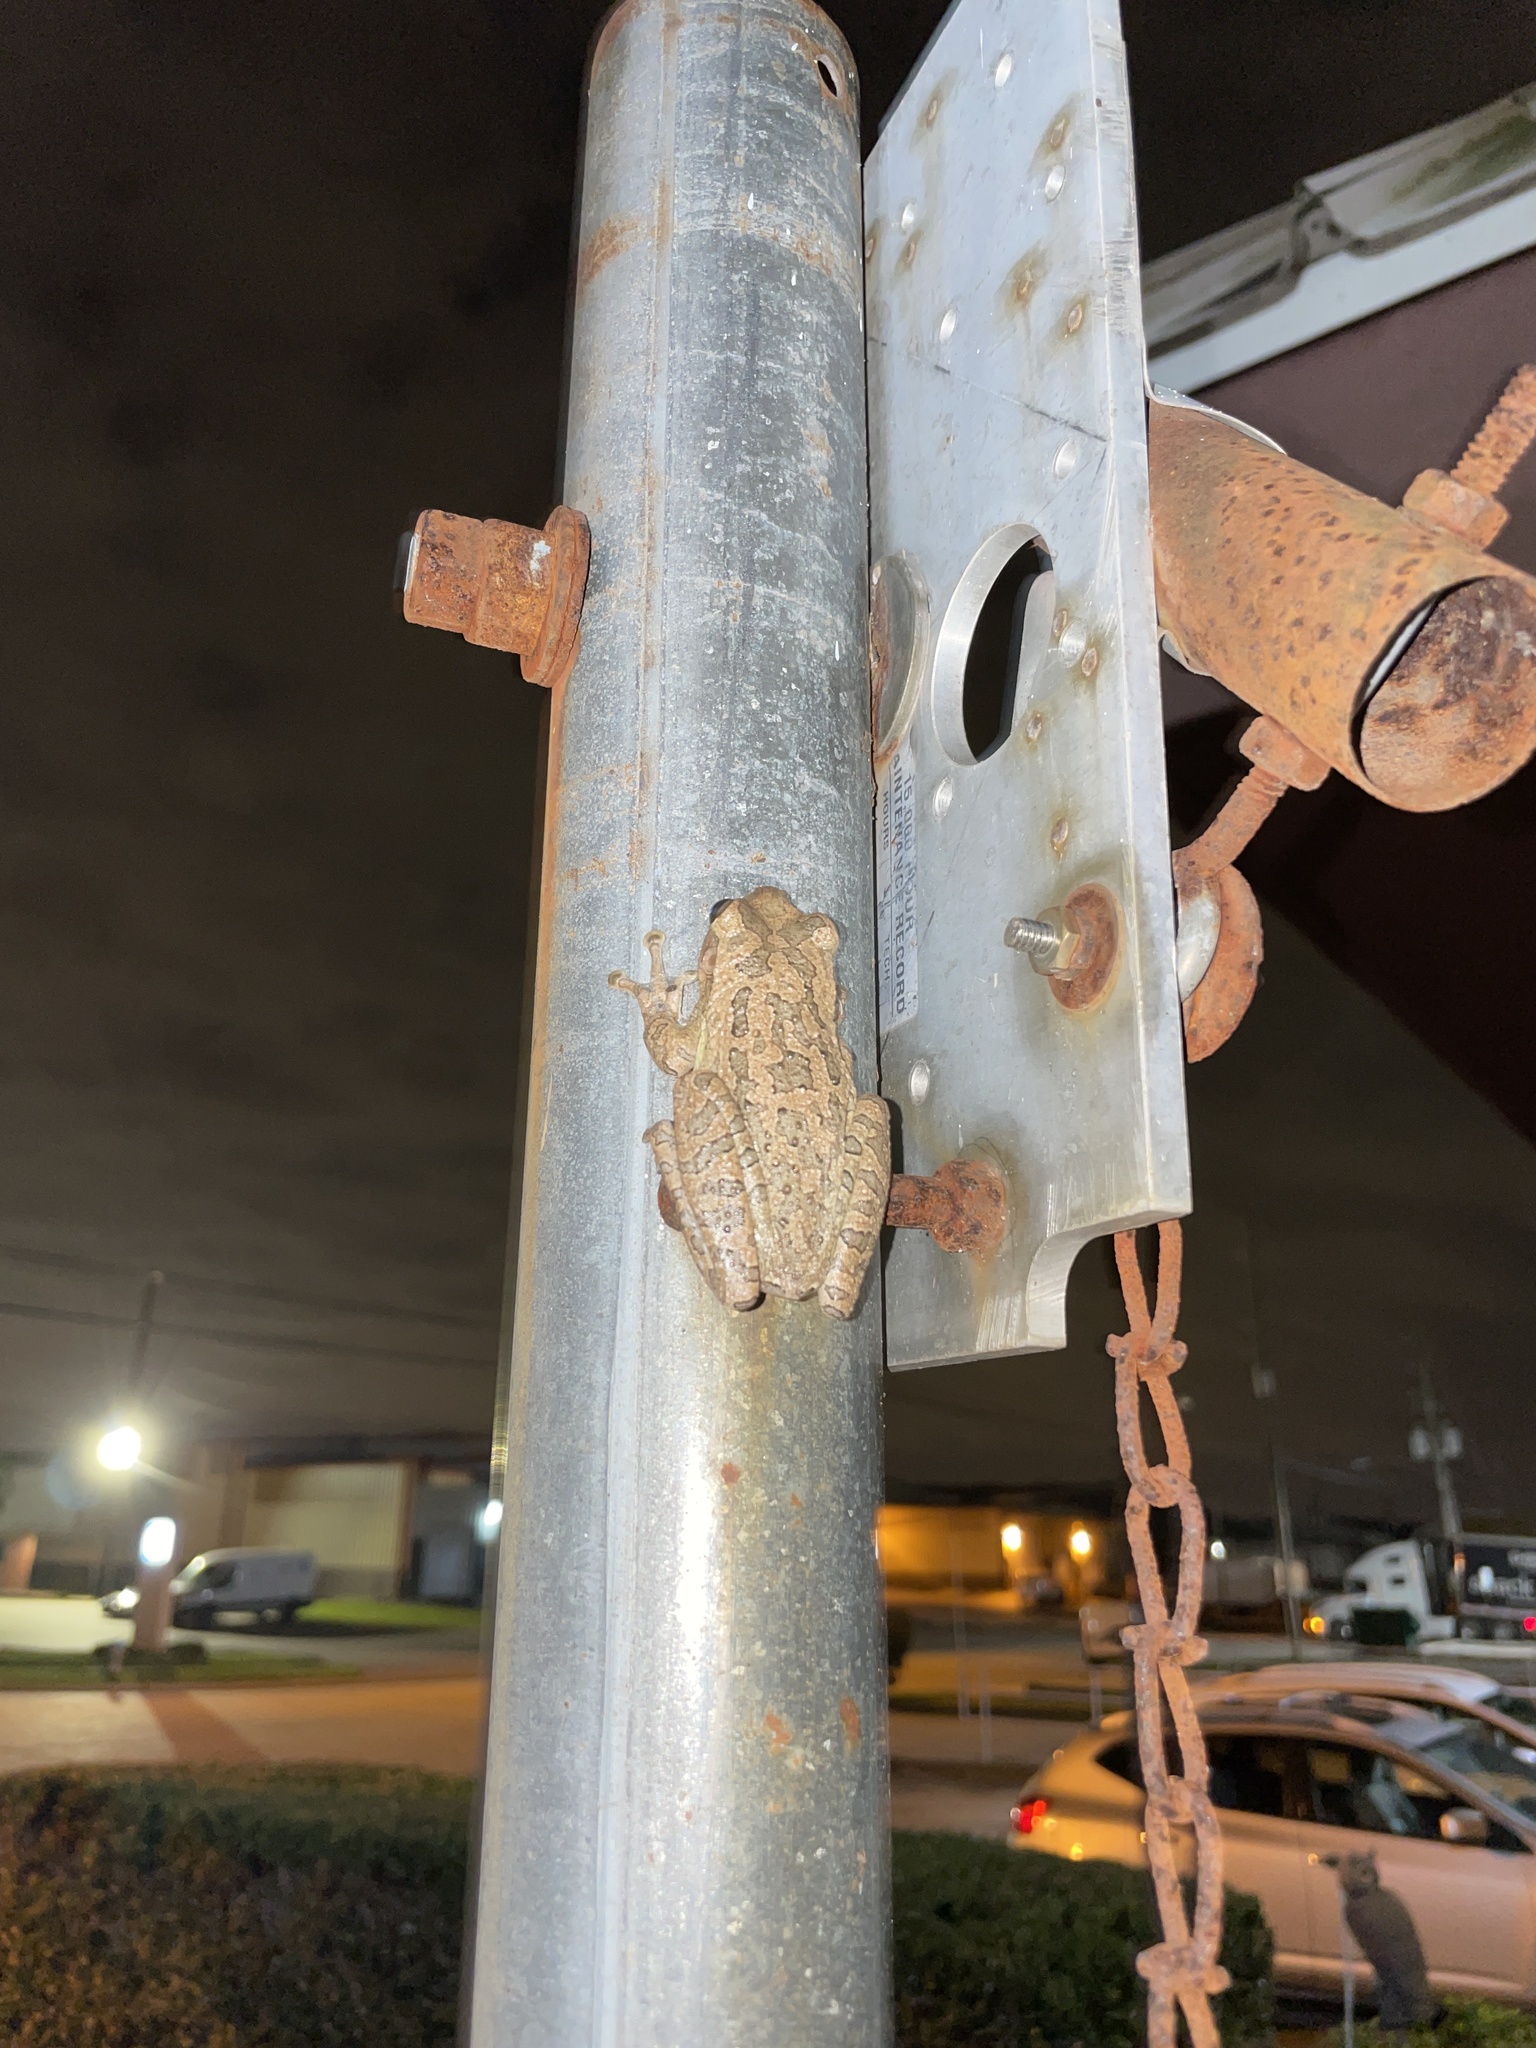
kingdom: Animalia
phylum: Chordata
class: Amphibia
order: Anura
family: Hylidae
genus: Osteopilus
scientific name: Osteopilus septentrionalis
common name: Cuban treefrog
